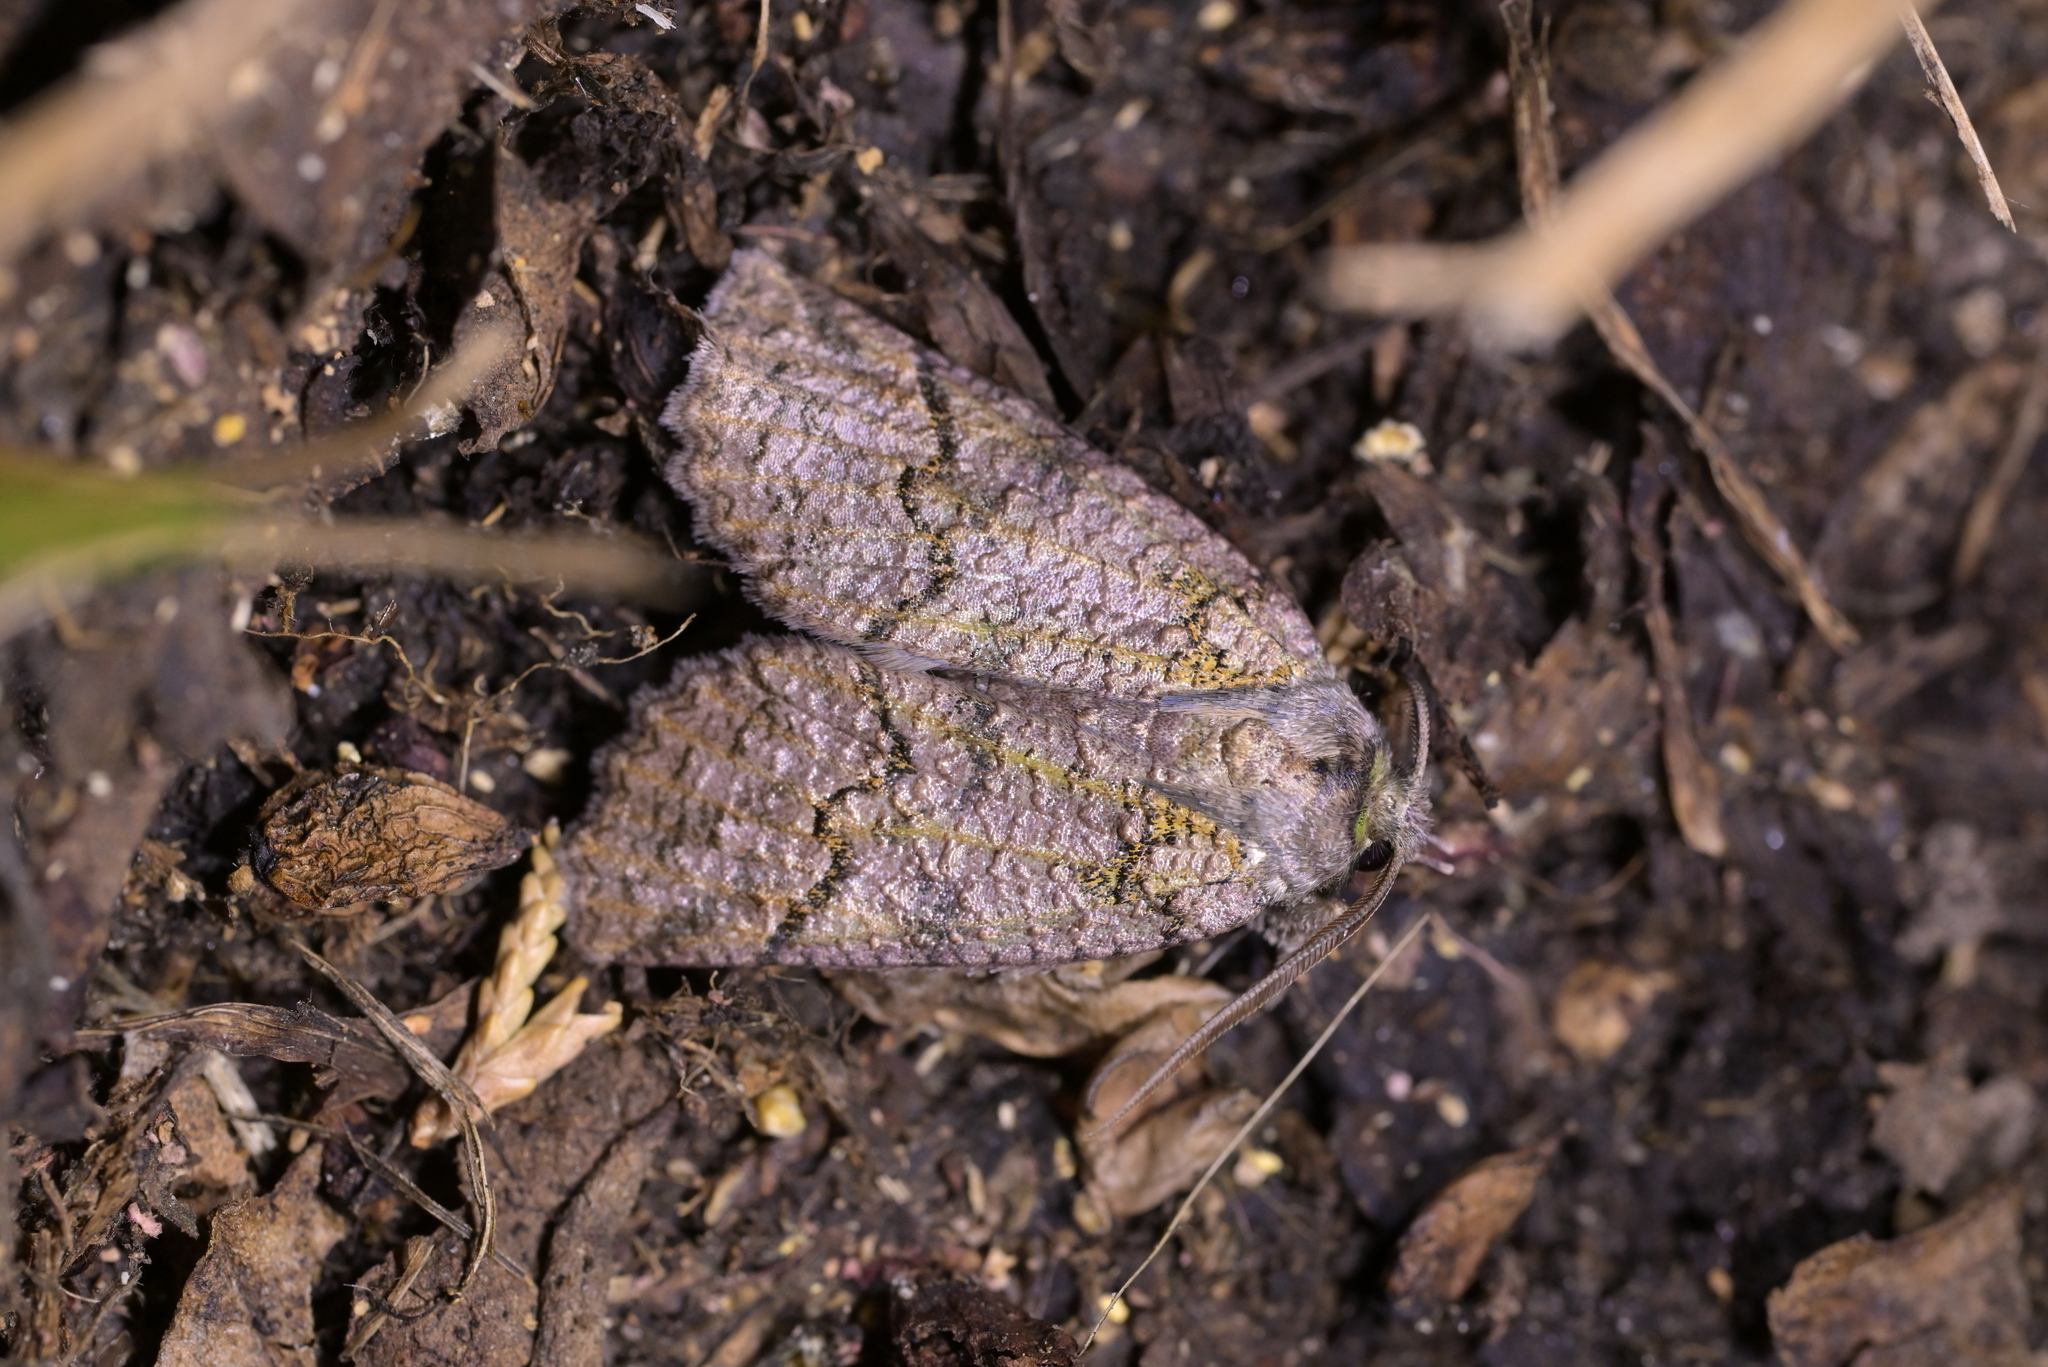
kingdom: Animalia
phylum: Arthropoda
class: Insecta
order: Lepidoptera
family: Geometridae
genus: Declana
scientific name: Declana floccosa
